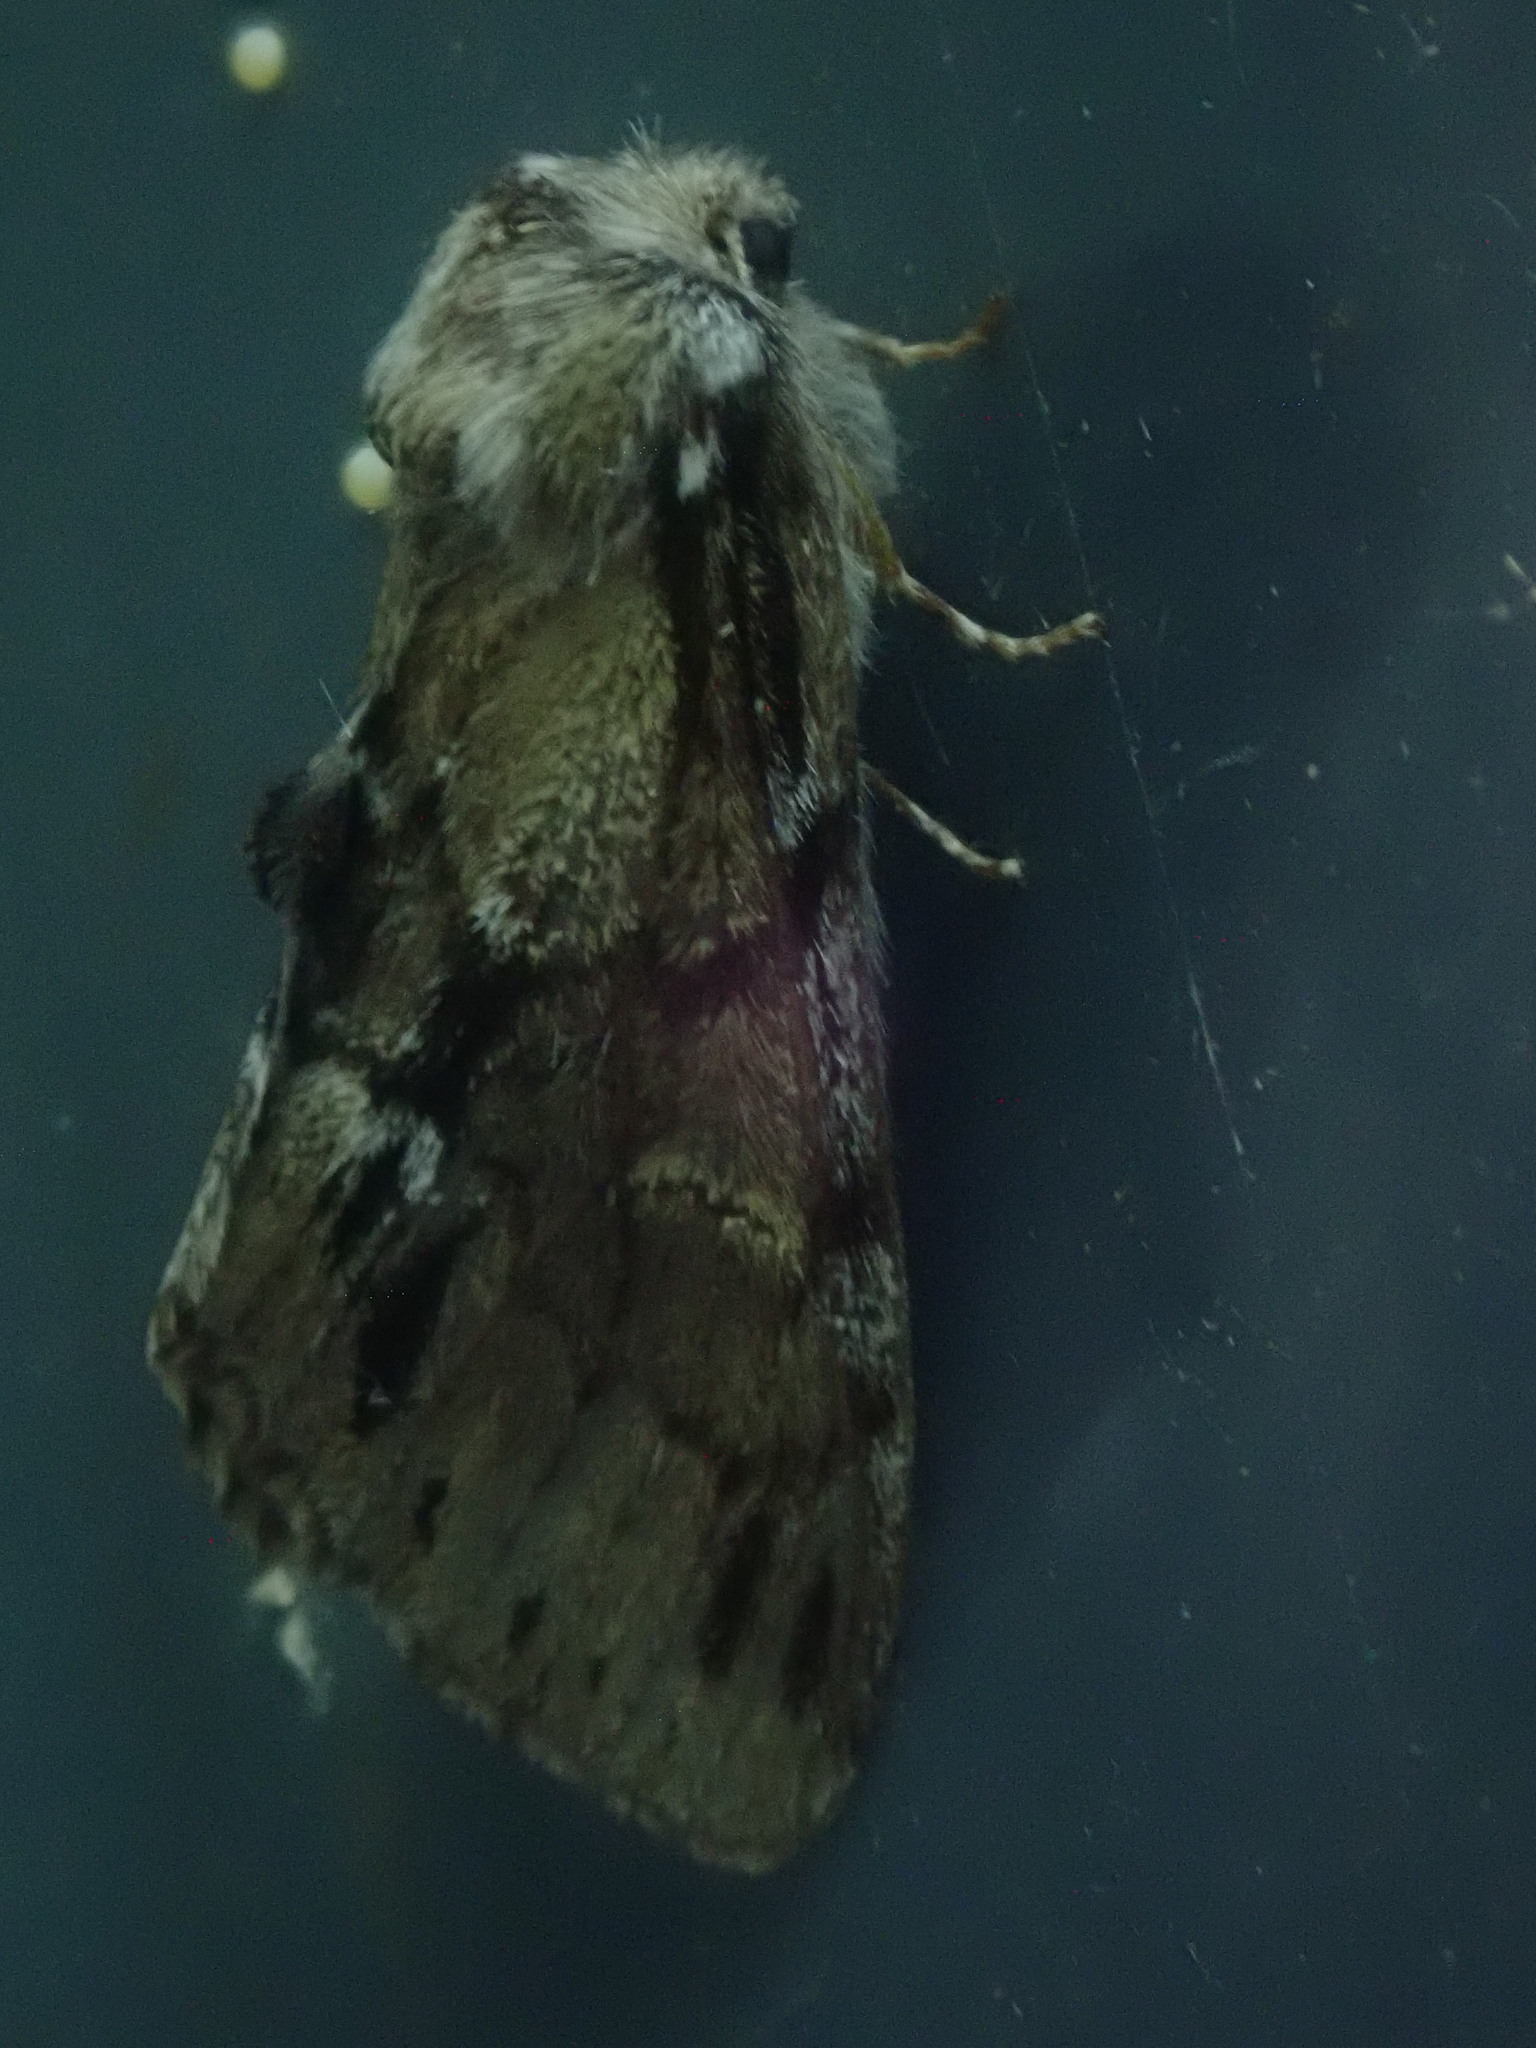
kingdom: Animalia
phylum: Arthropoda
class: Insecta
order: Lepidoptera
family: Notodontidae
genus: Paraeschra
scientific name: Paraeschra georgica
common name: Georgian prominent
